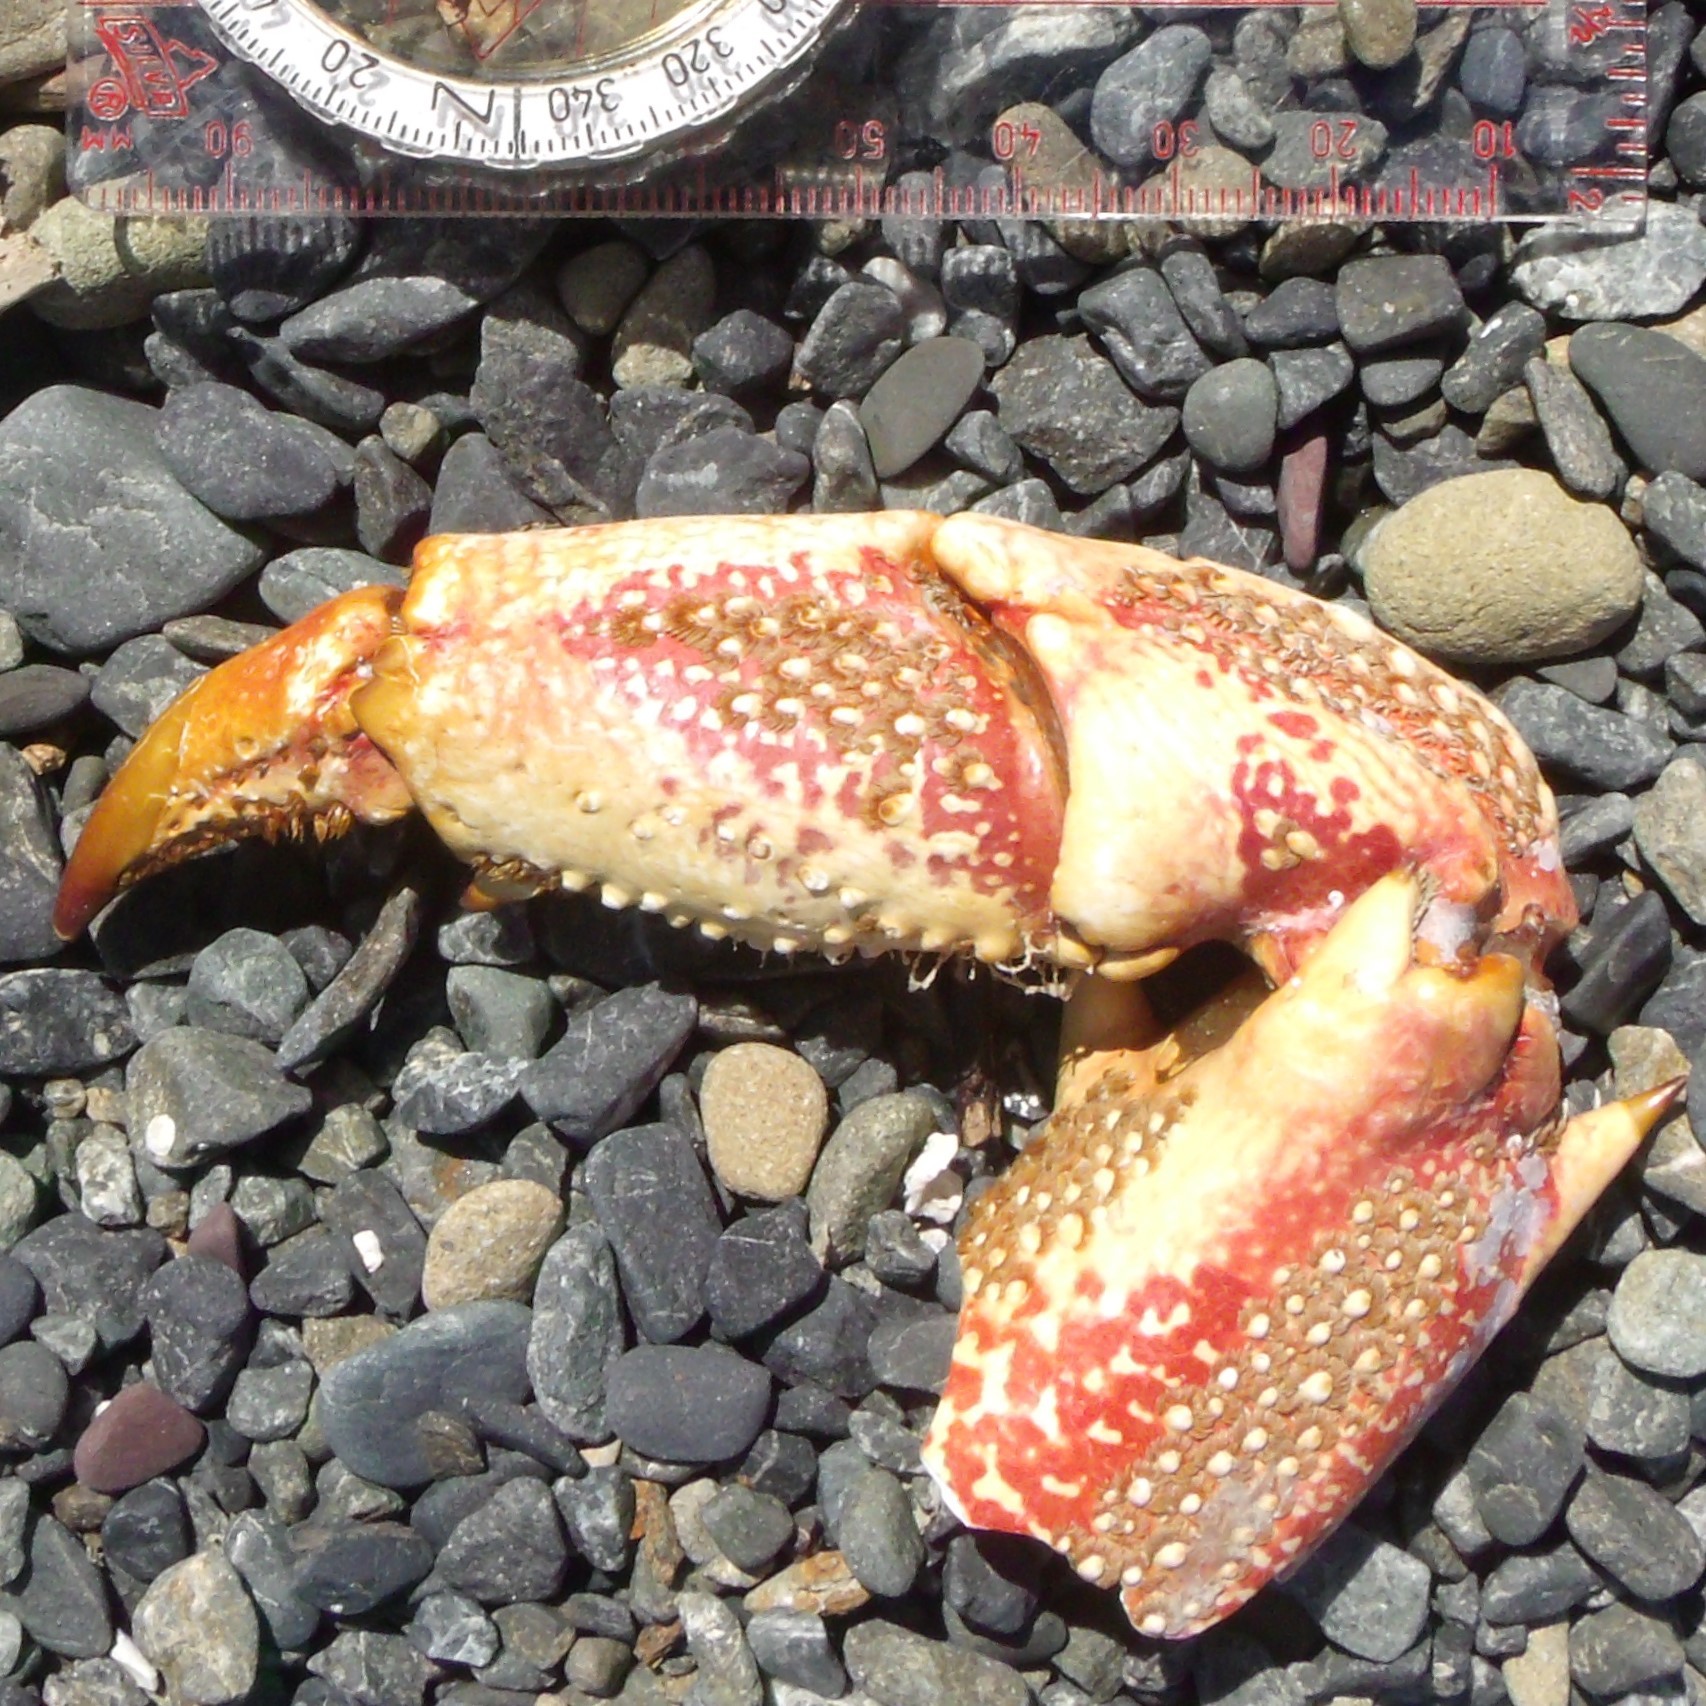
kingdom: Animalia
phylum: Arthropoda
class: Malacostraca
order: Decapoda
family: Palinuridae
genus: Jasus
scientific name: Jasus edwardsii
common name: Red rock lobster
